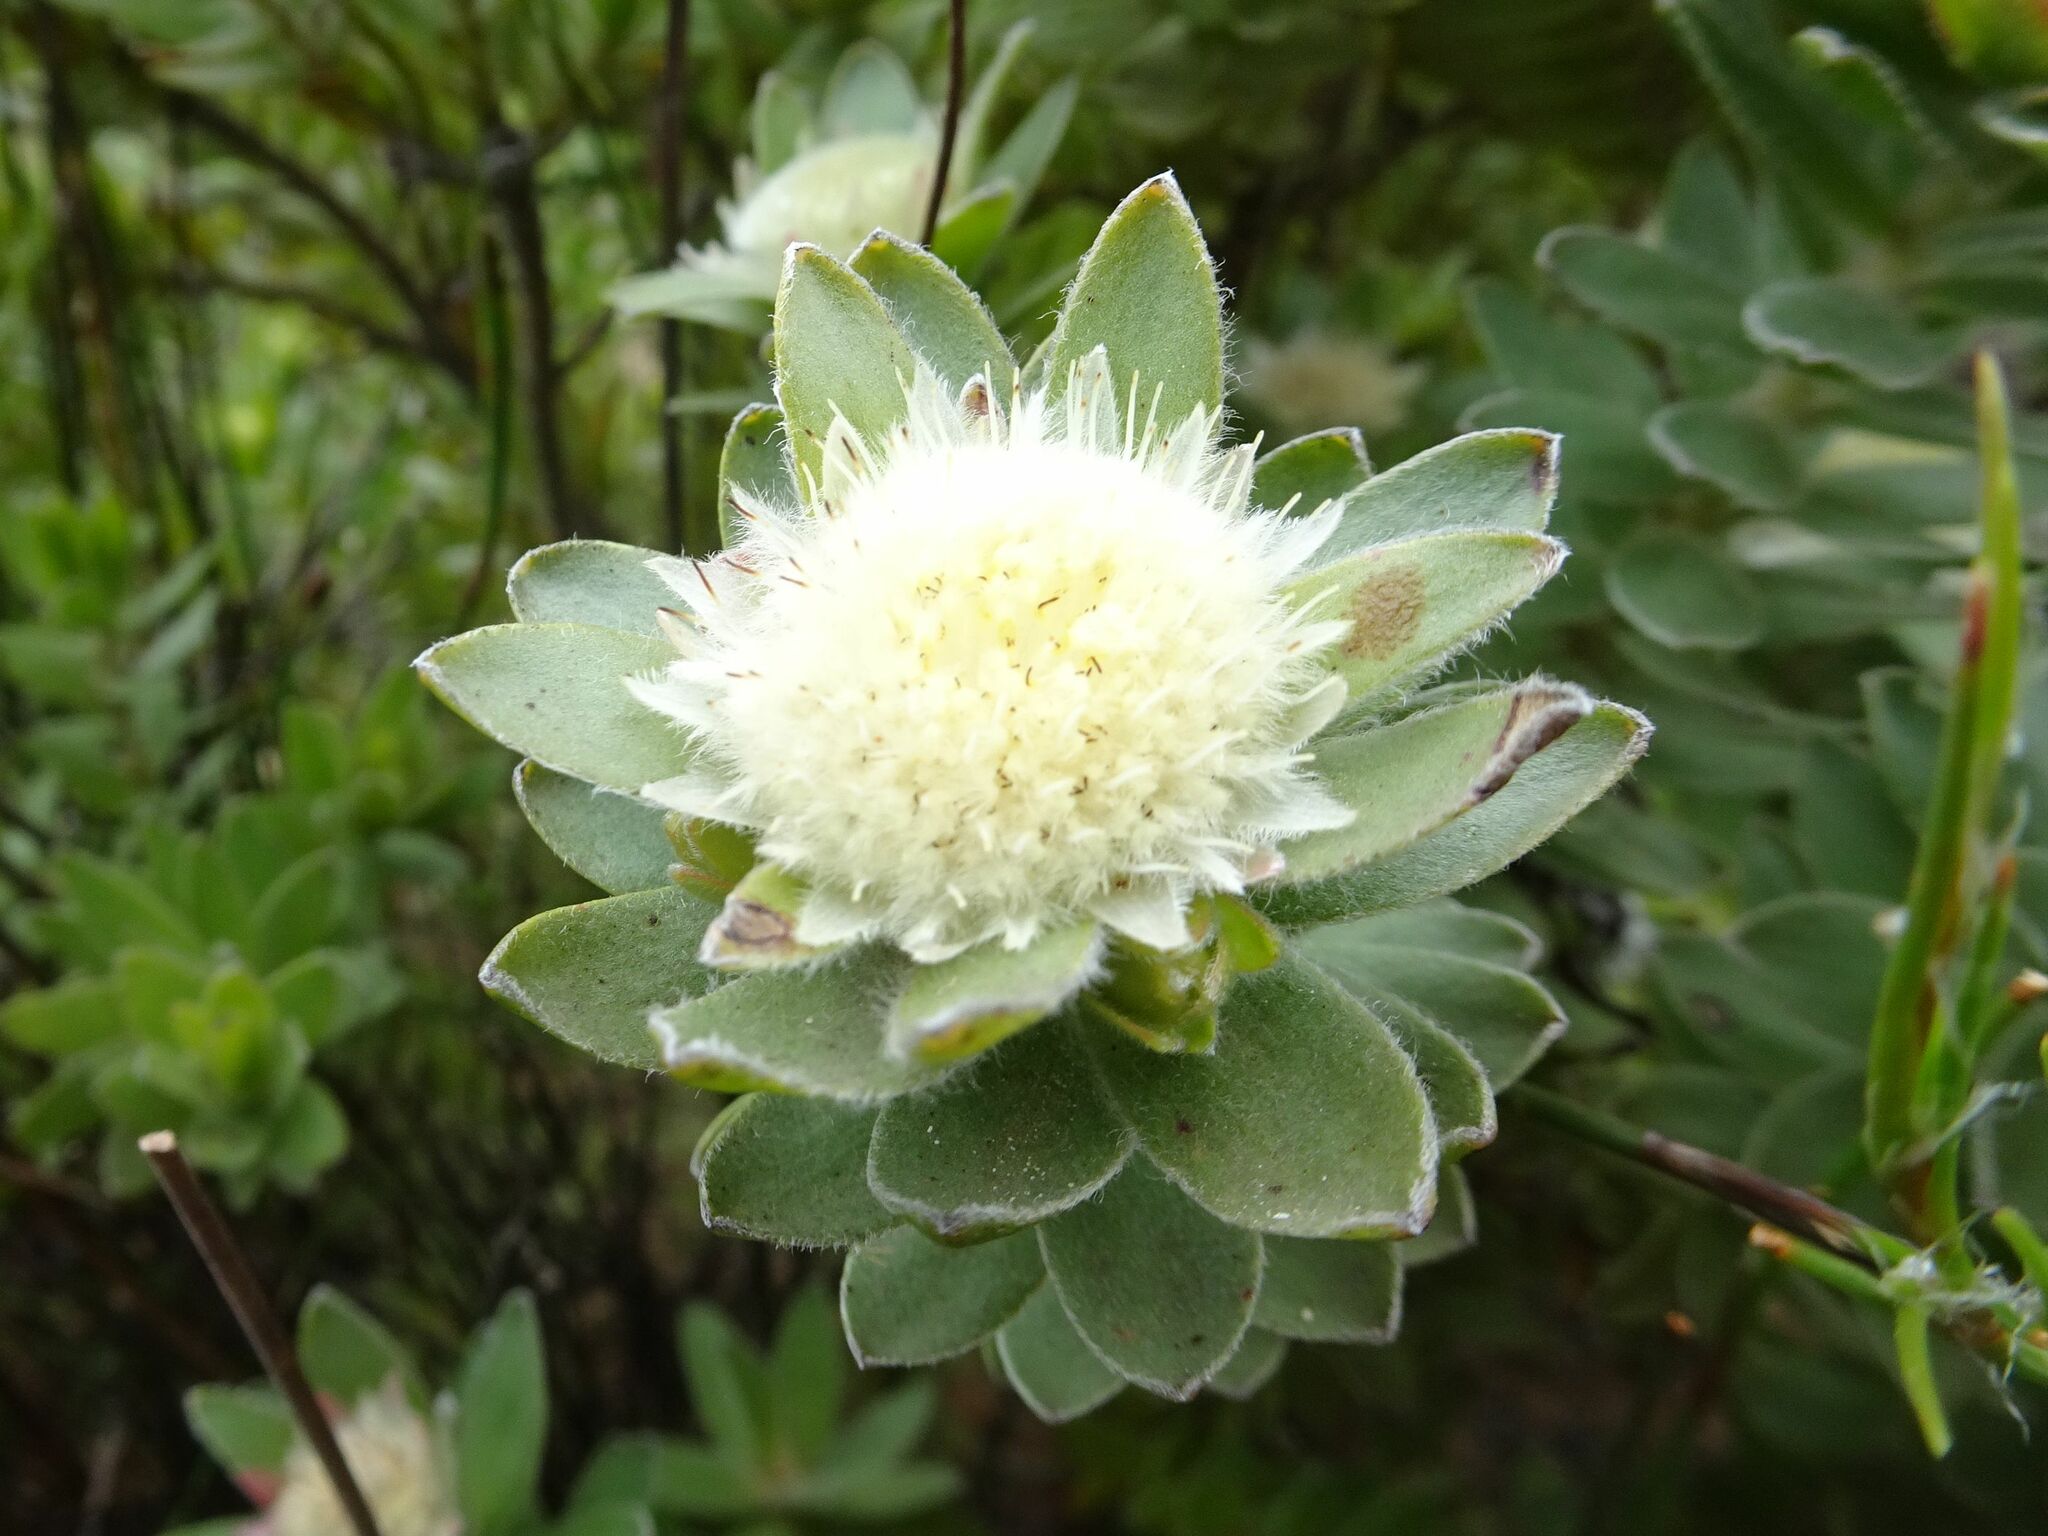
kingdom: Plantae
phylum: Tracheophyta
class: Magnoliopsida
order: Proteales
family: Proteaceae
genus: Diastella
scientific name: Diastella thymelaeoides
